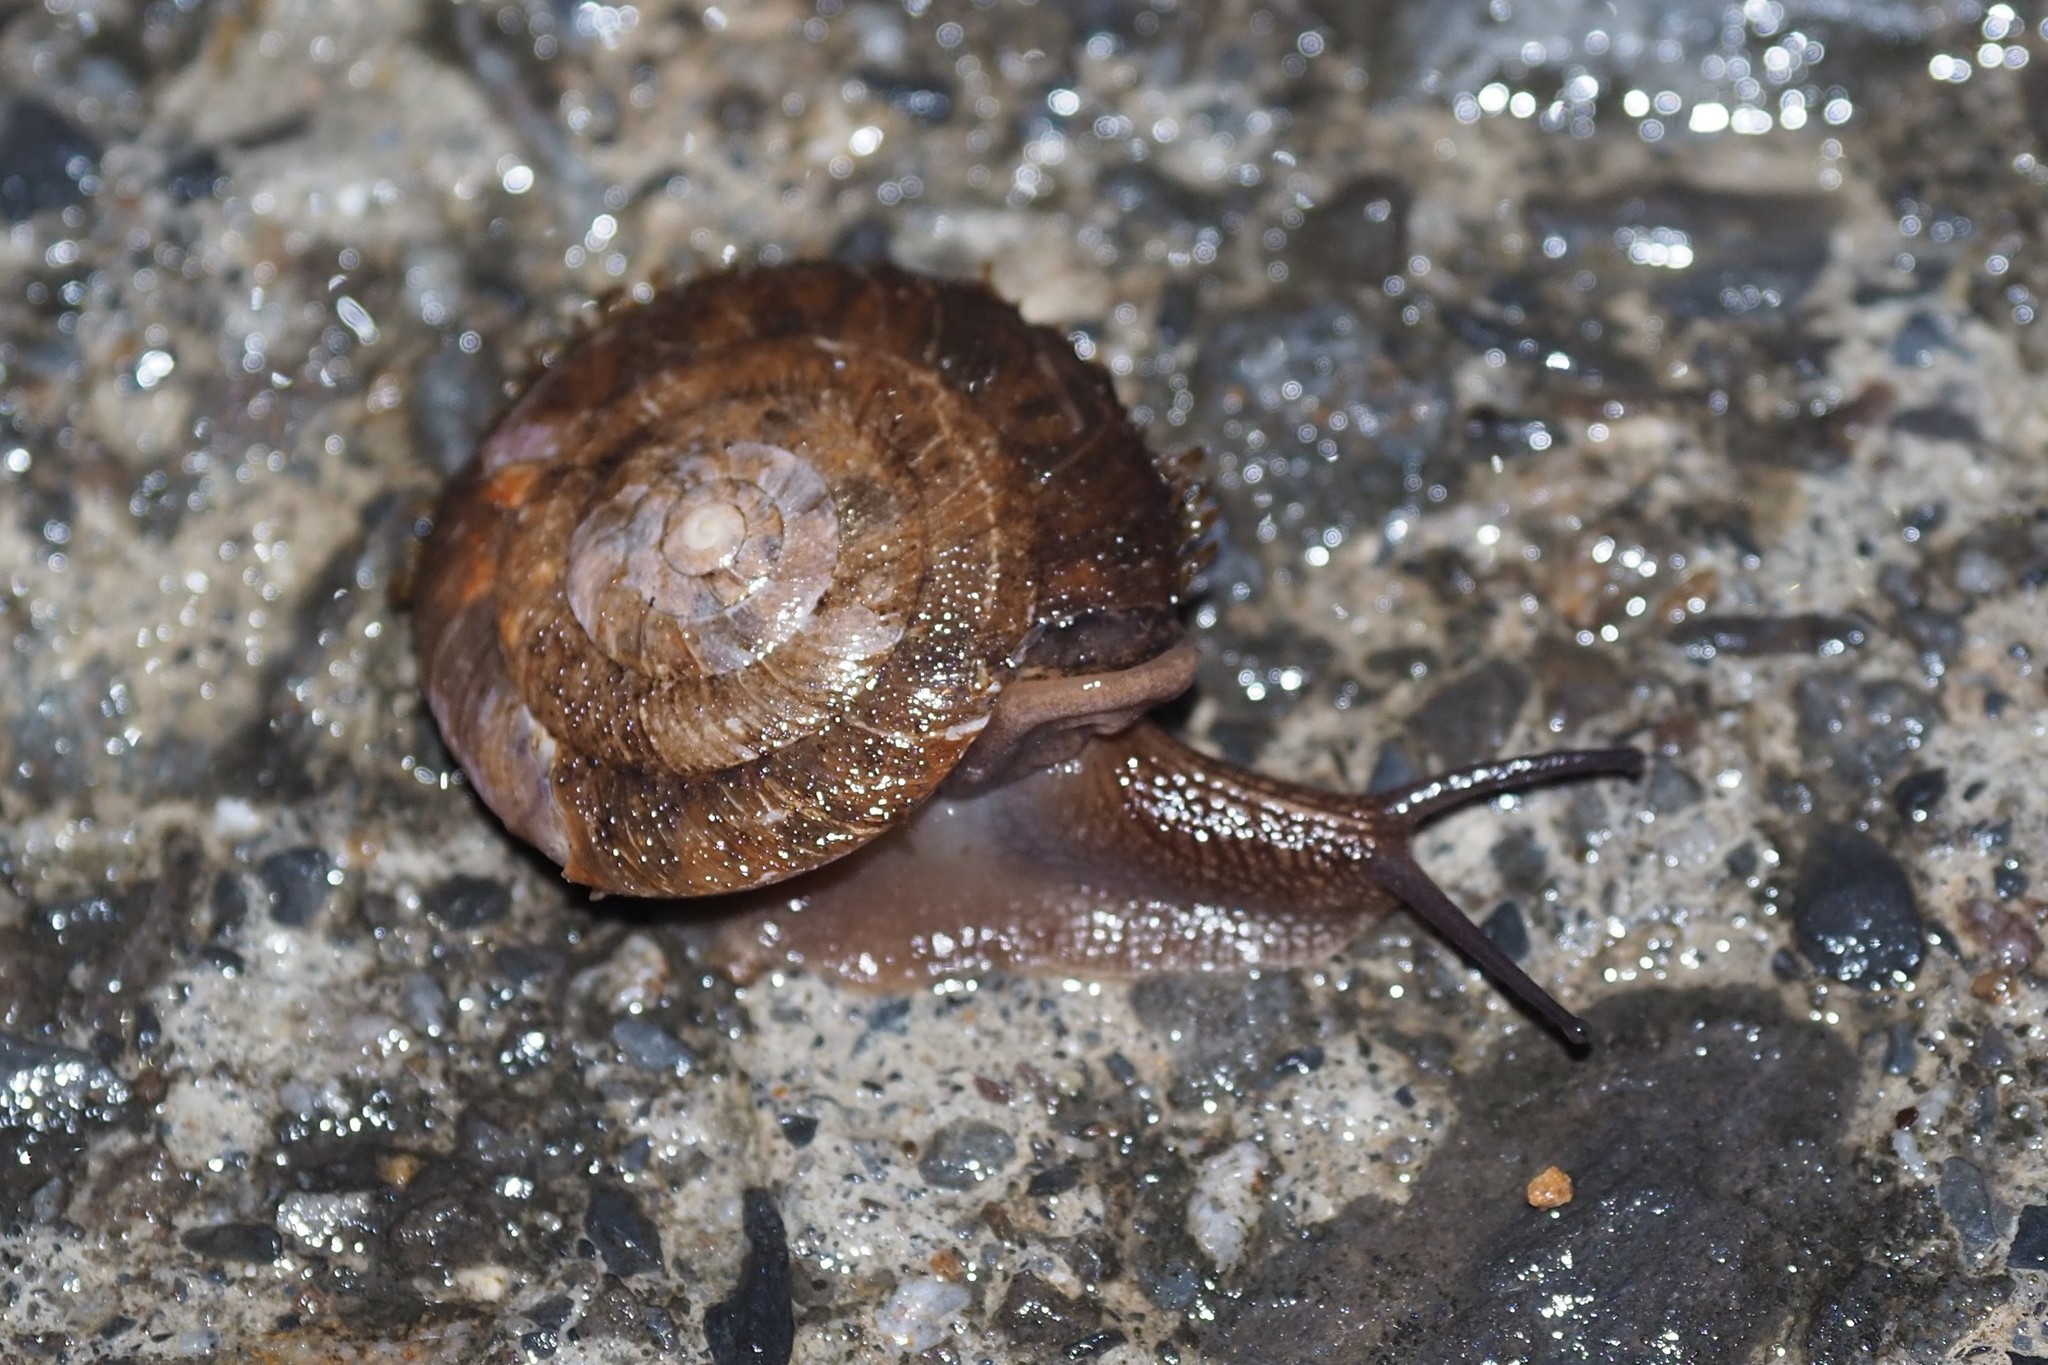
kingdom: Animalia
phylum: Mollusca
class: Gastropoda
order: Stylommatophora
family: Camaenidae
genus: Plectotropis
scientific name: Plectotropis mackensii
